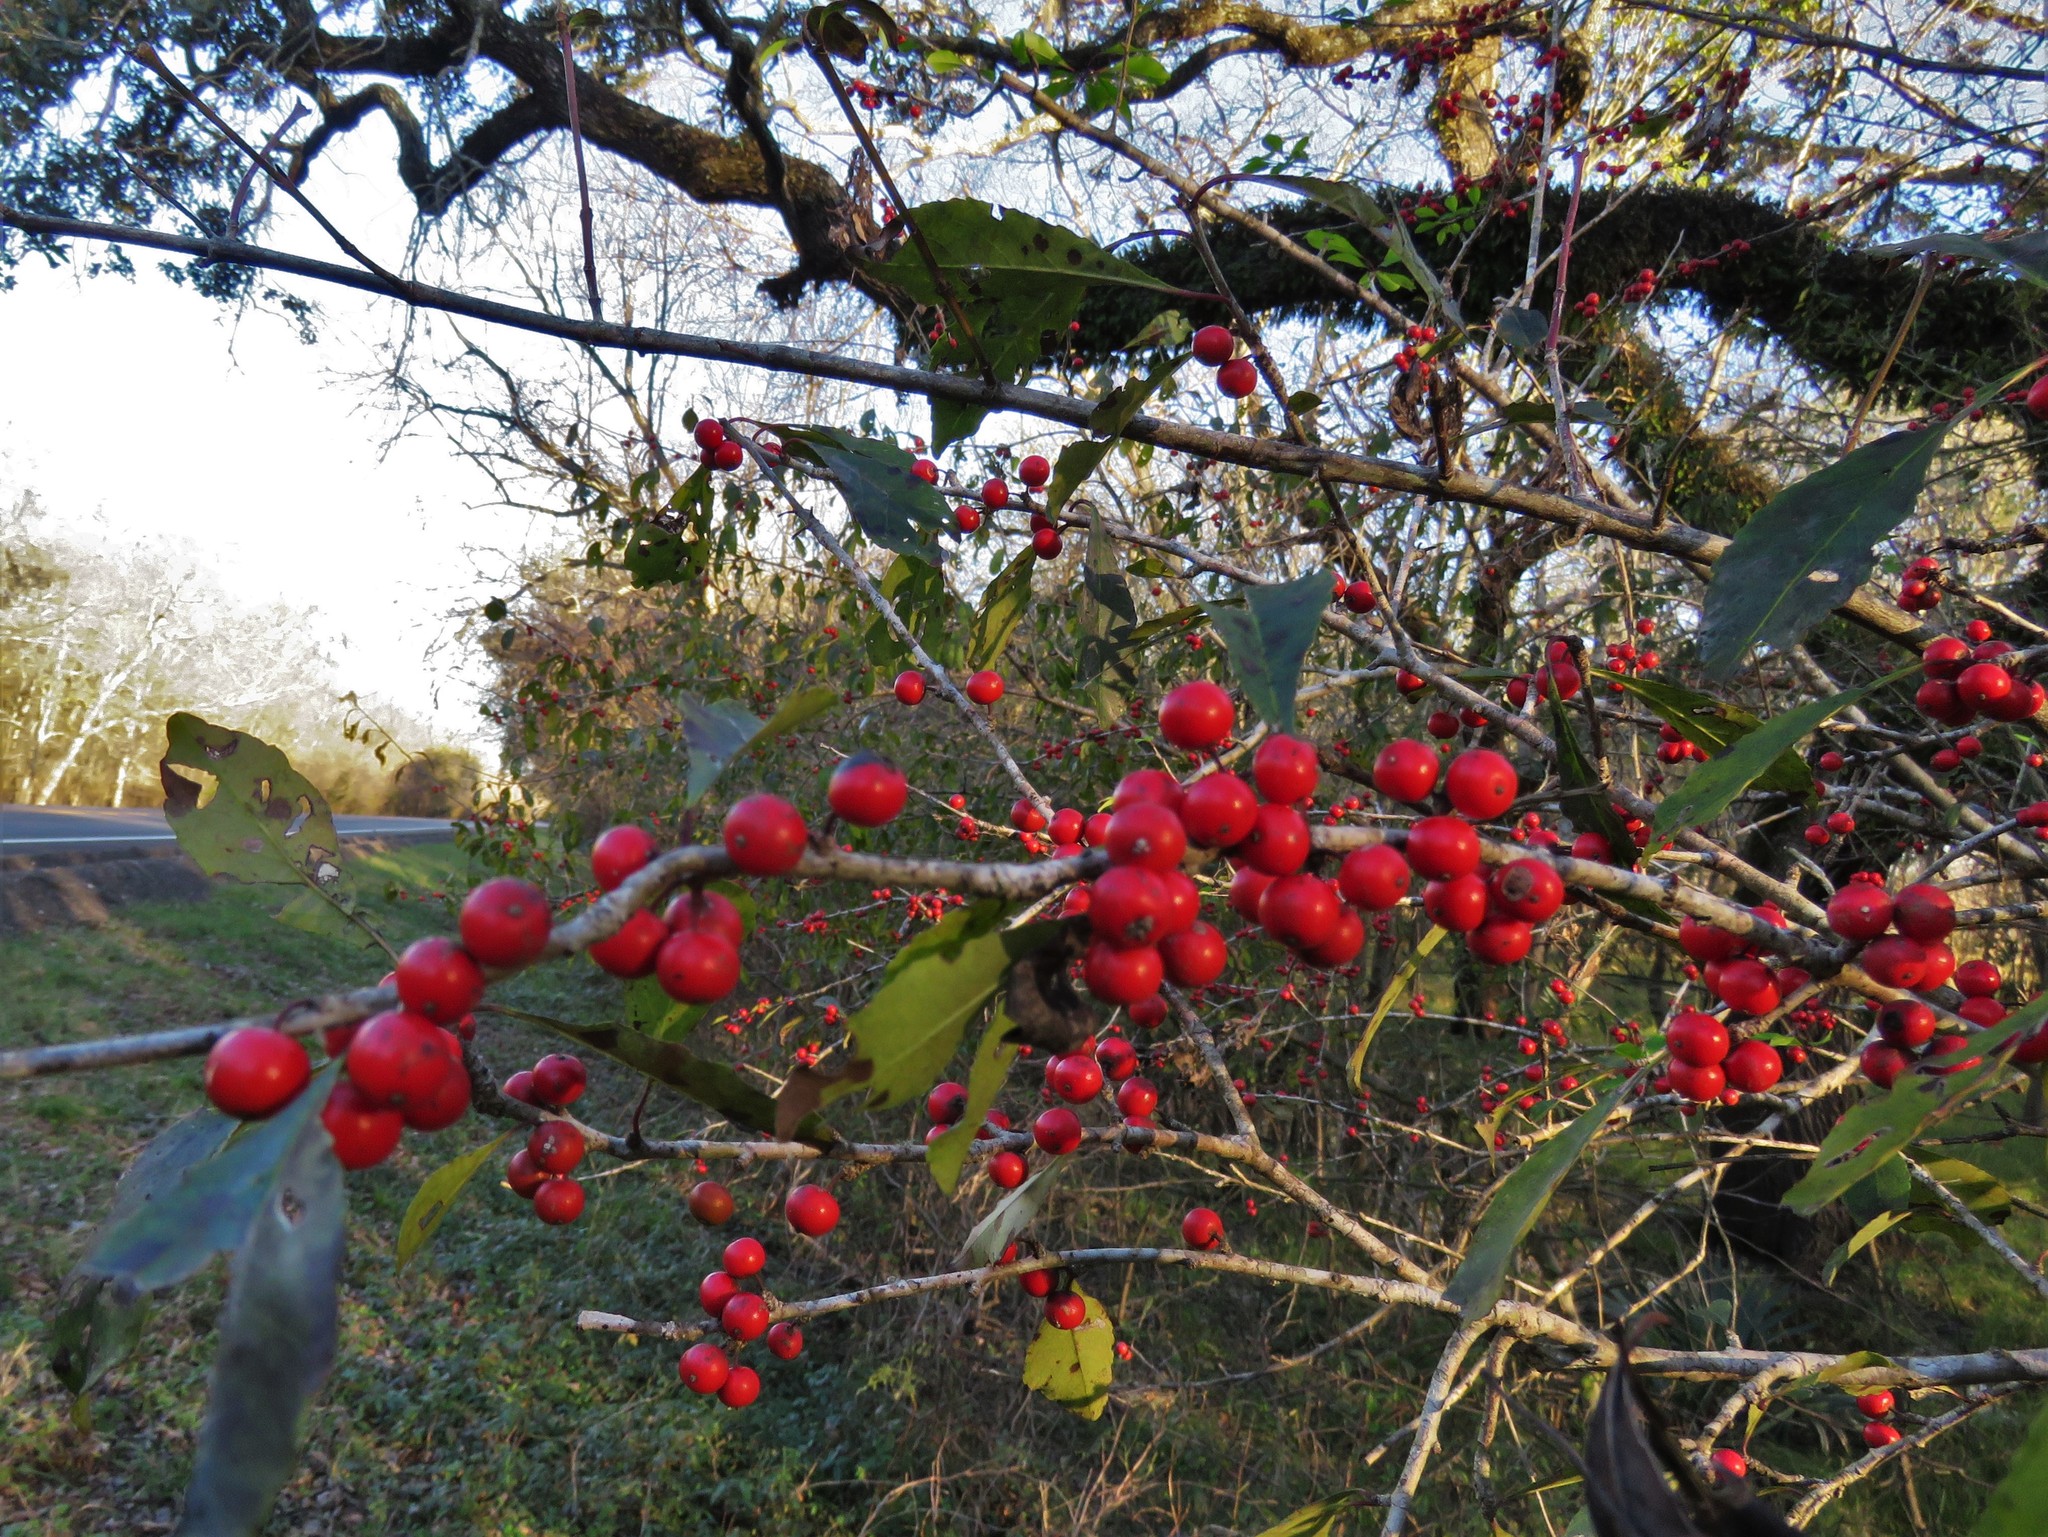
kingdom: Plantae
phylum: Tracheophyta
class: Magnoliopsida
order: Aquifoliales
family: Aquifoliaceae
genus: Ilex
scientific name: Ilex decidua
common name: Possum-haw
